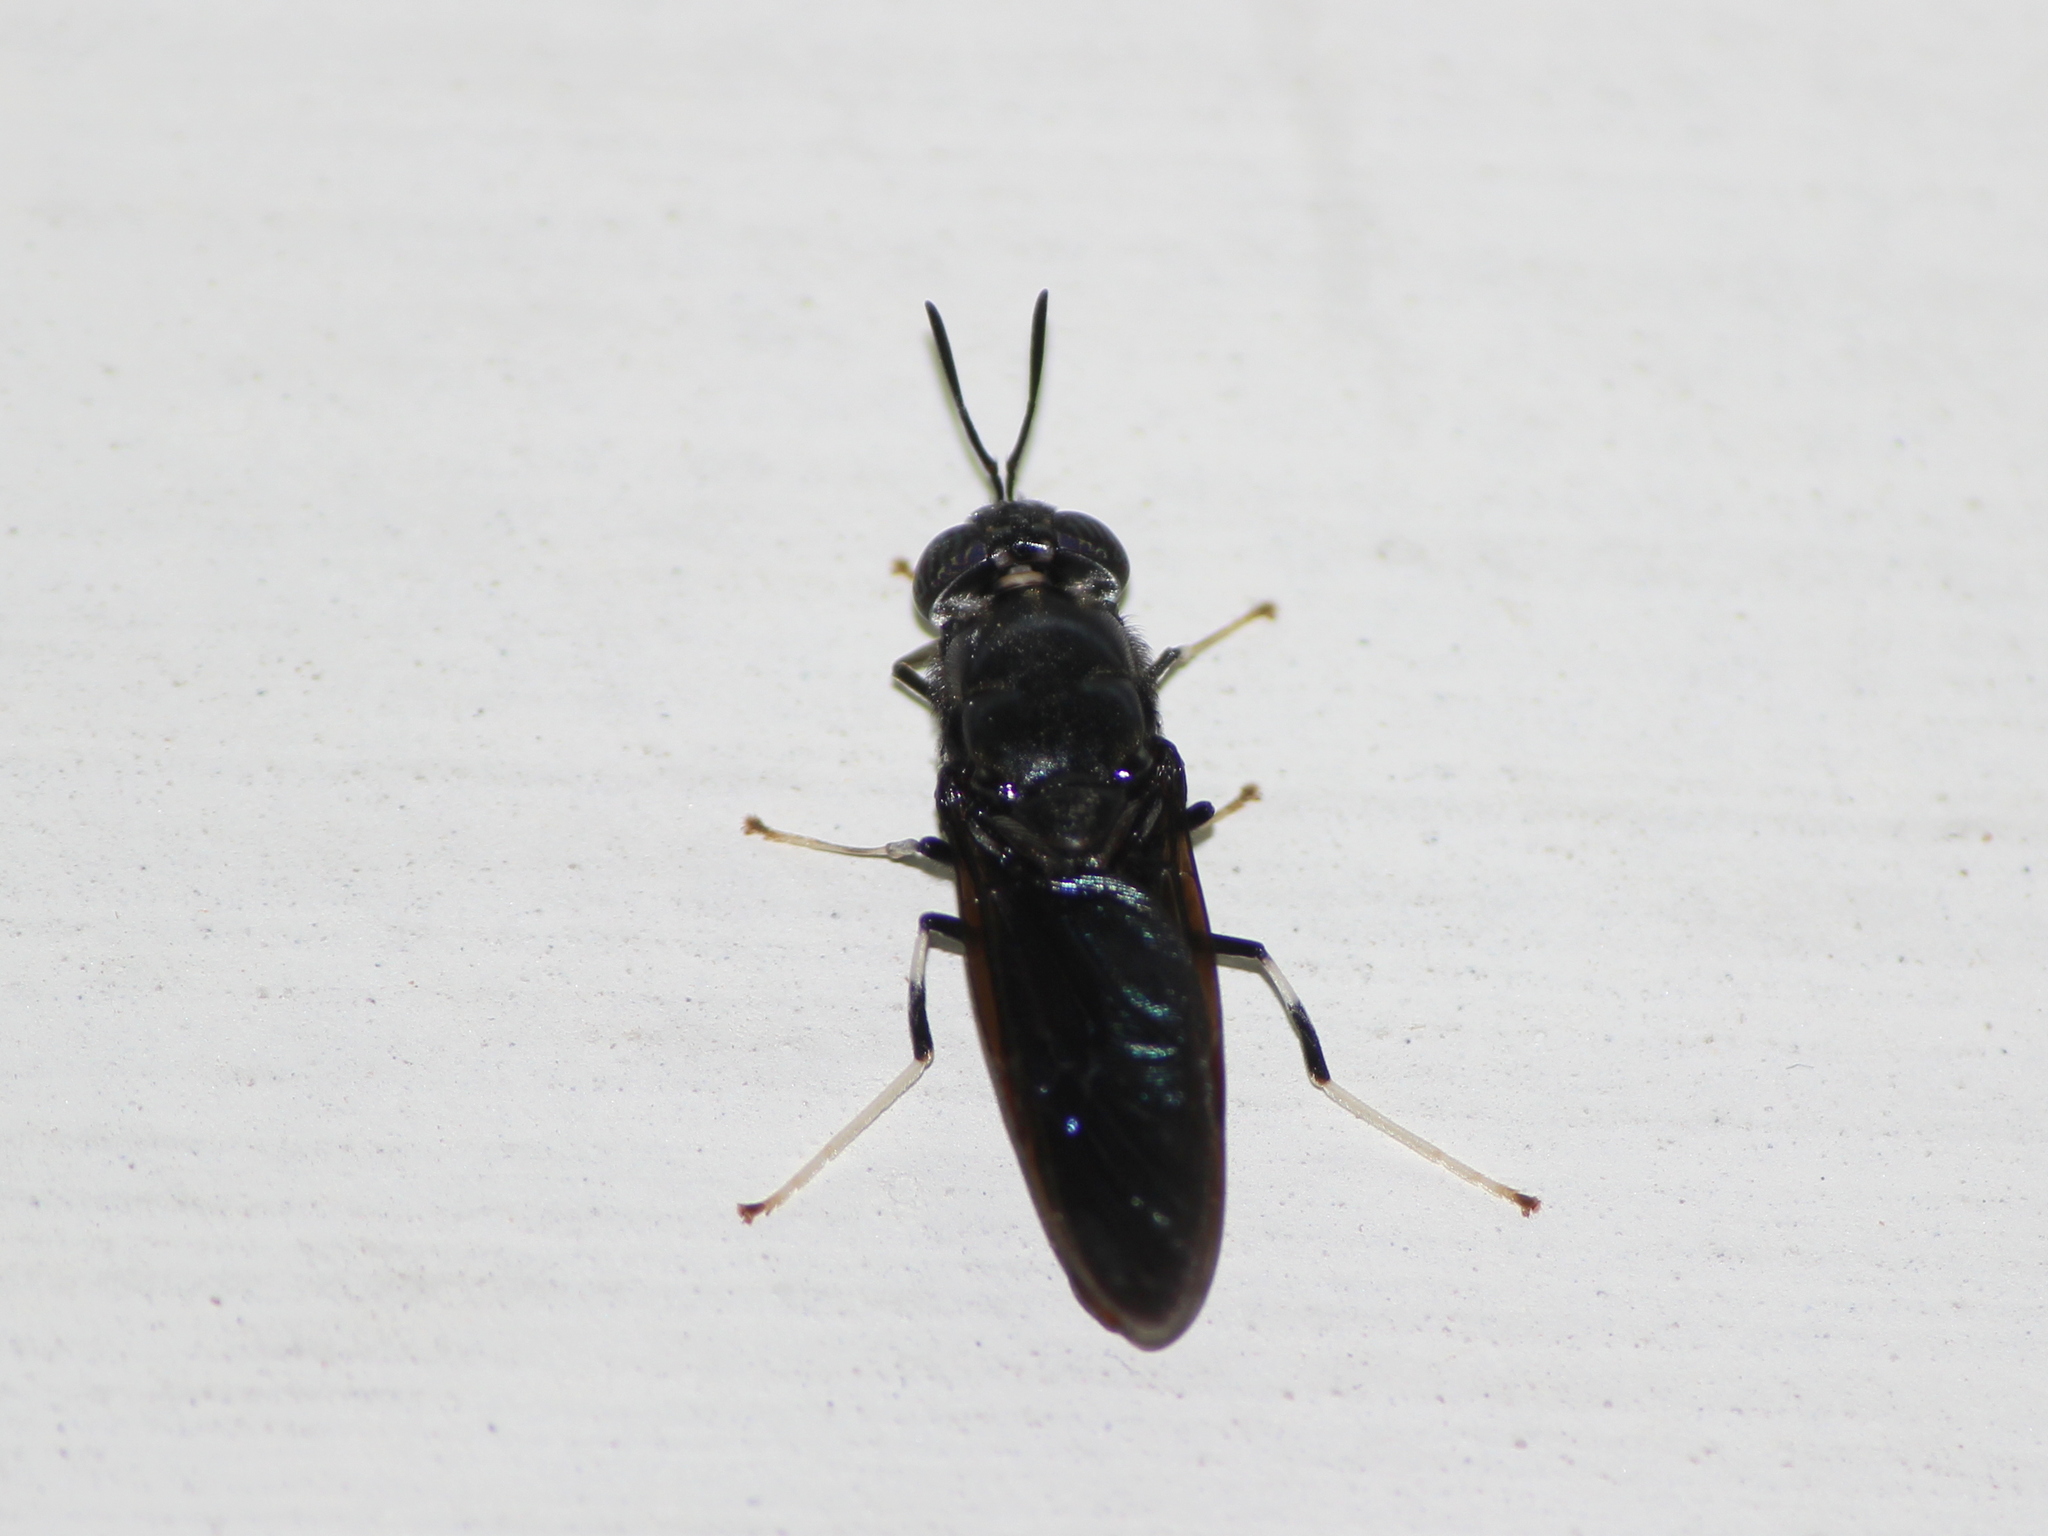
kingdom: Animalia
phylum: Arthropoda
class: Insecta
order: Diptera
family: Stratiomyidae
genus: Hermetia
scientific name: Hermetia illucens
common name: Black soldier fly
